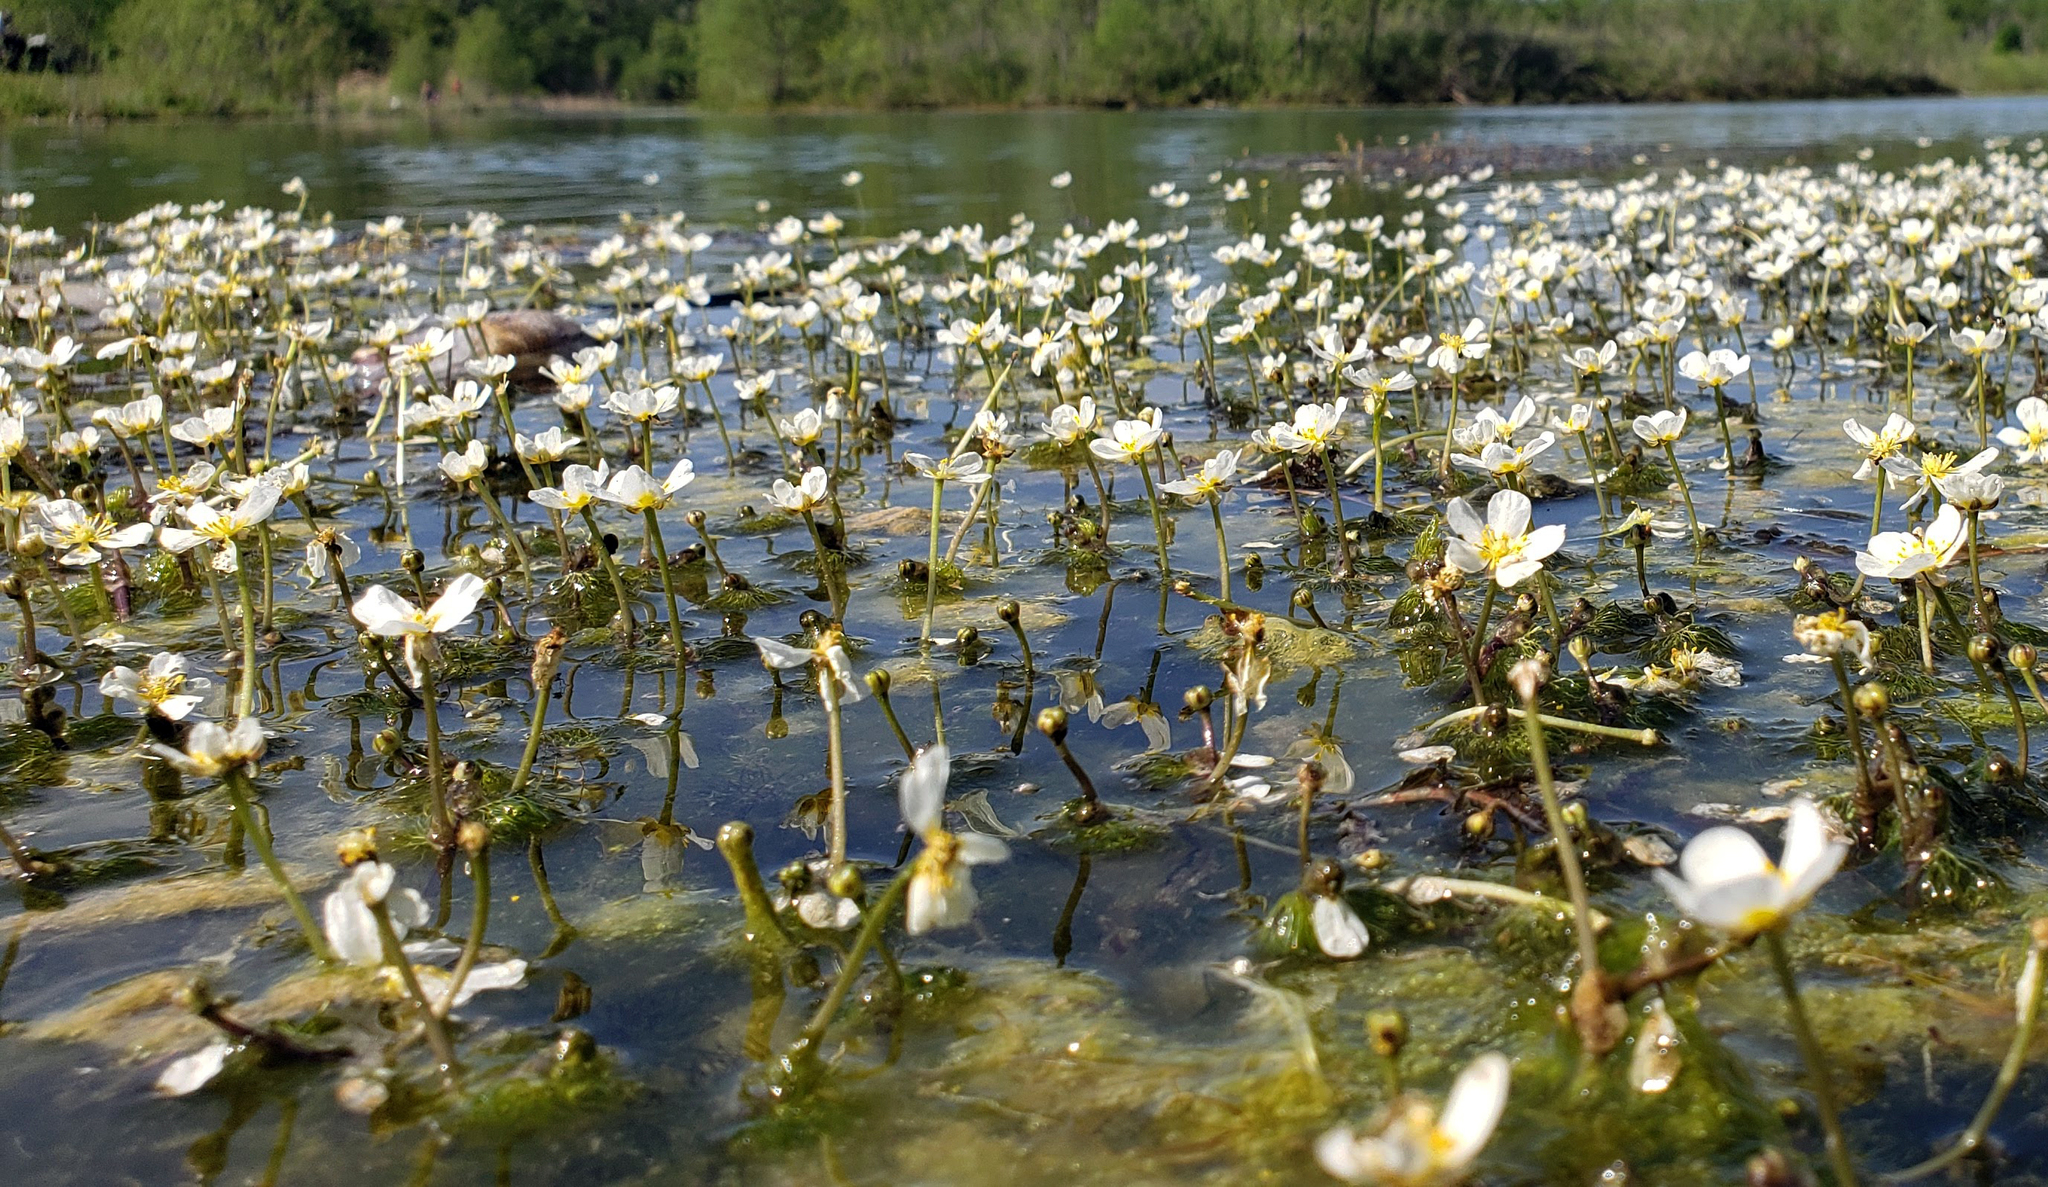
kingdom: Plantae
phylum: Tracheophyta
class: Magnoliopsida
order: Ranunculales
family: Ranunculaceae
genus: Ranunculus
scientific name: Ranunculus aquatilis
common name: Common water-crowfoot
